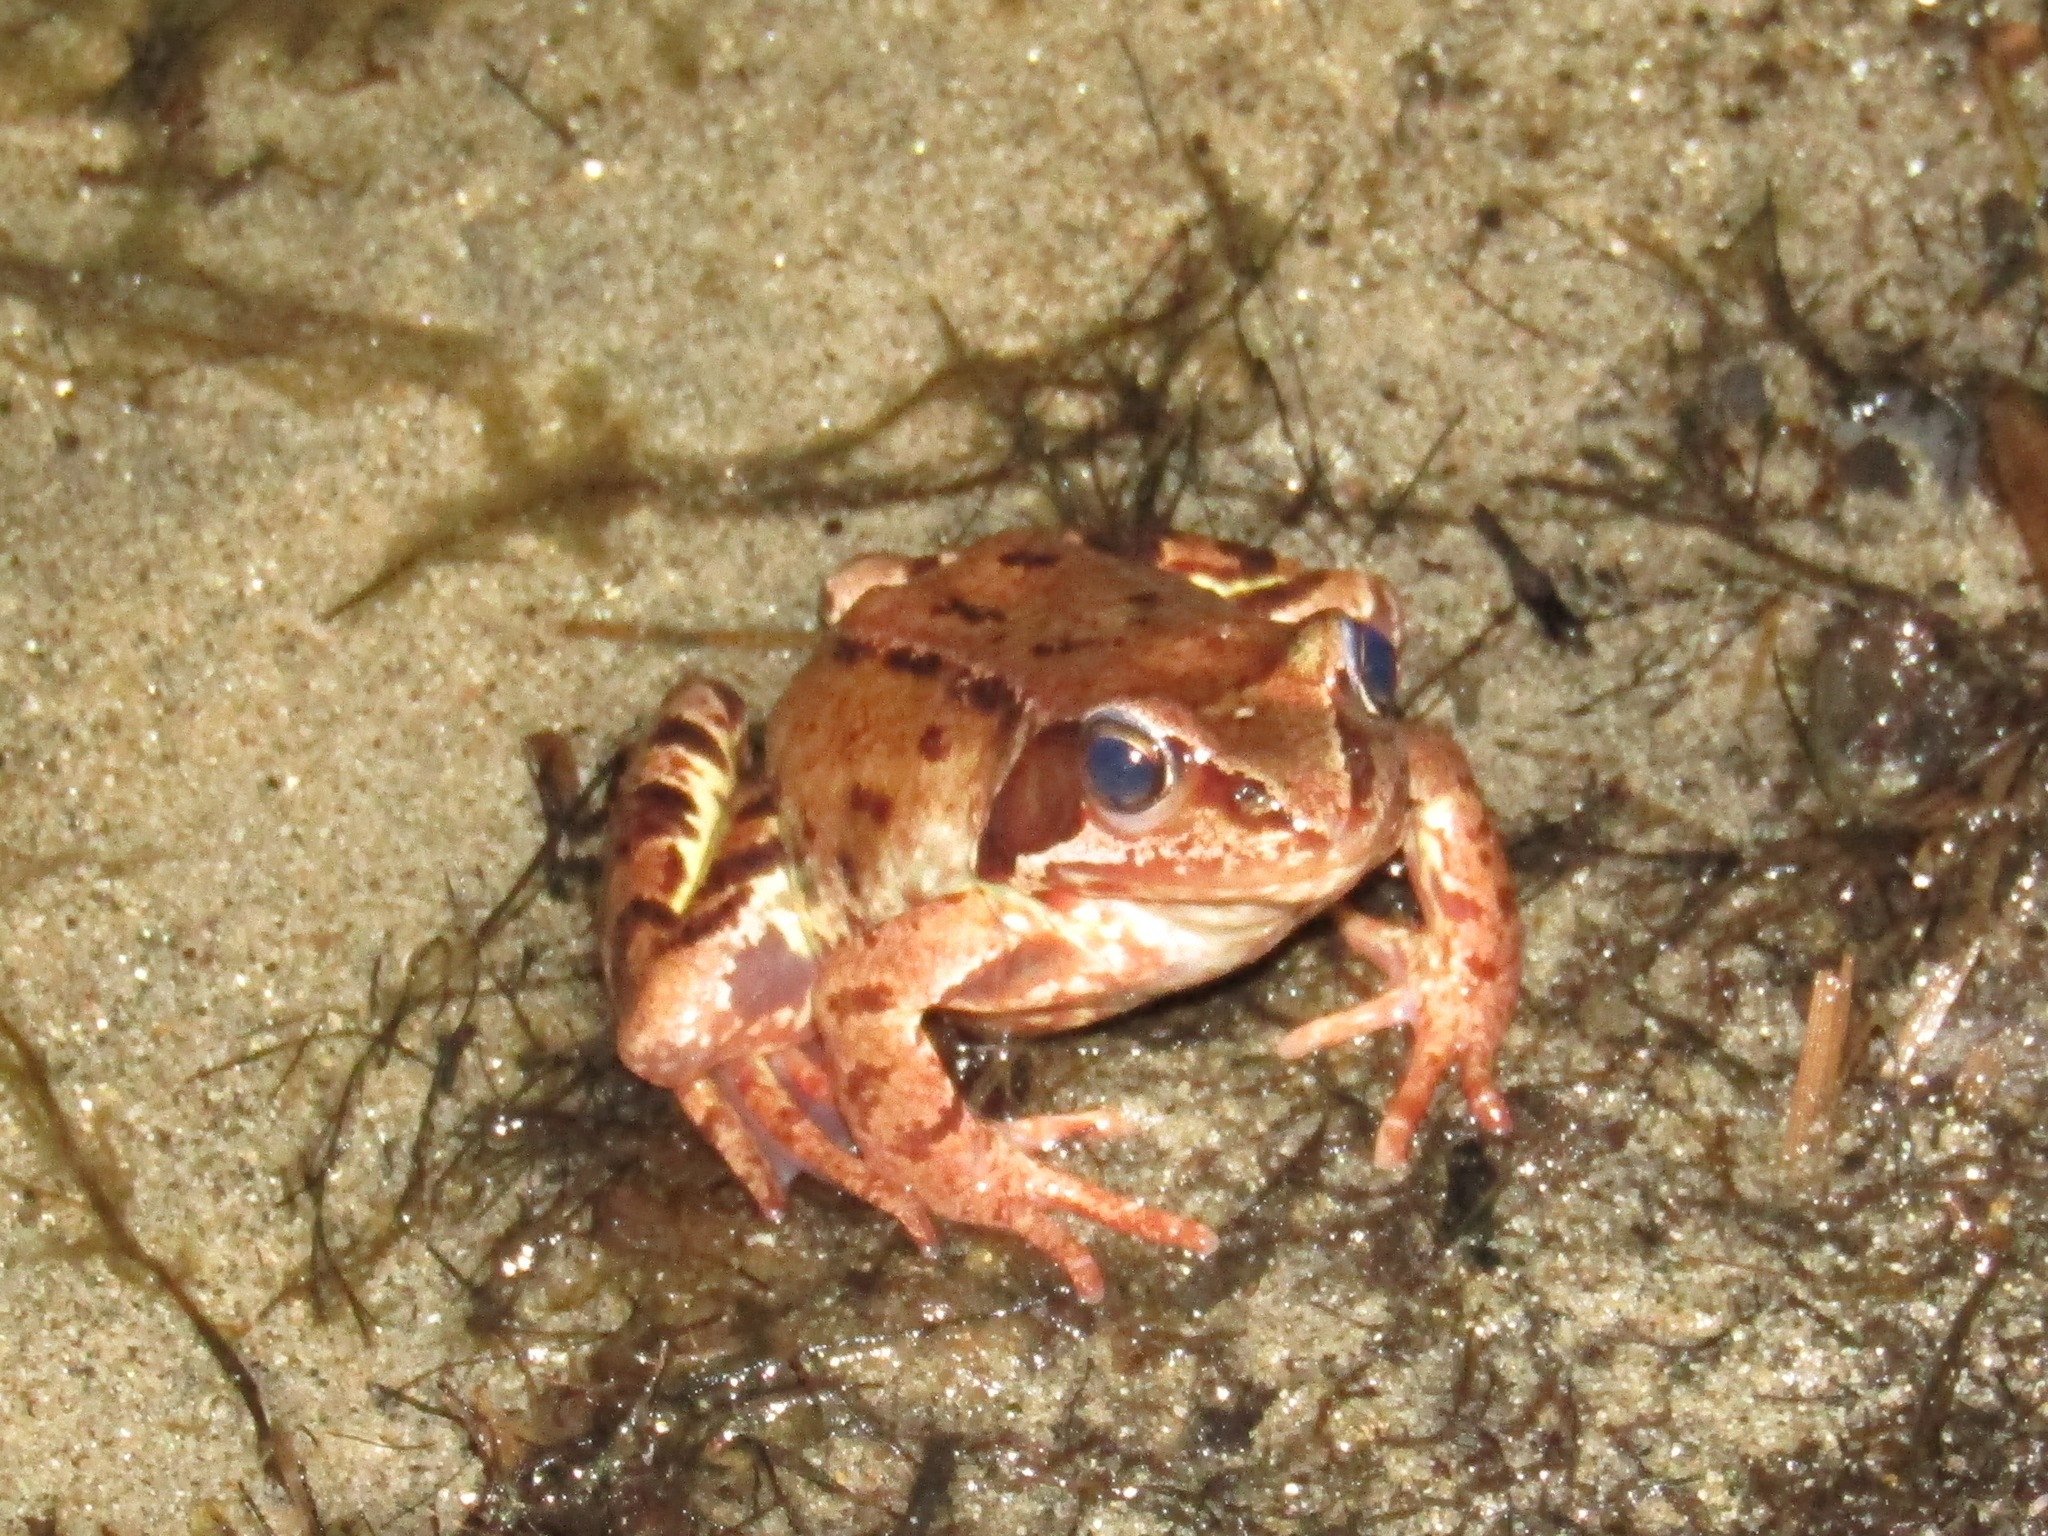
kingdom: Animalia
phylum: Chordata
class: Amphibia
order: Anura
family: Ranidae
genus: Rana
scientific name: Rana temporaria
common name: Common frog
